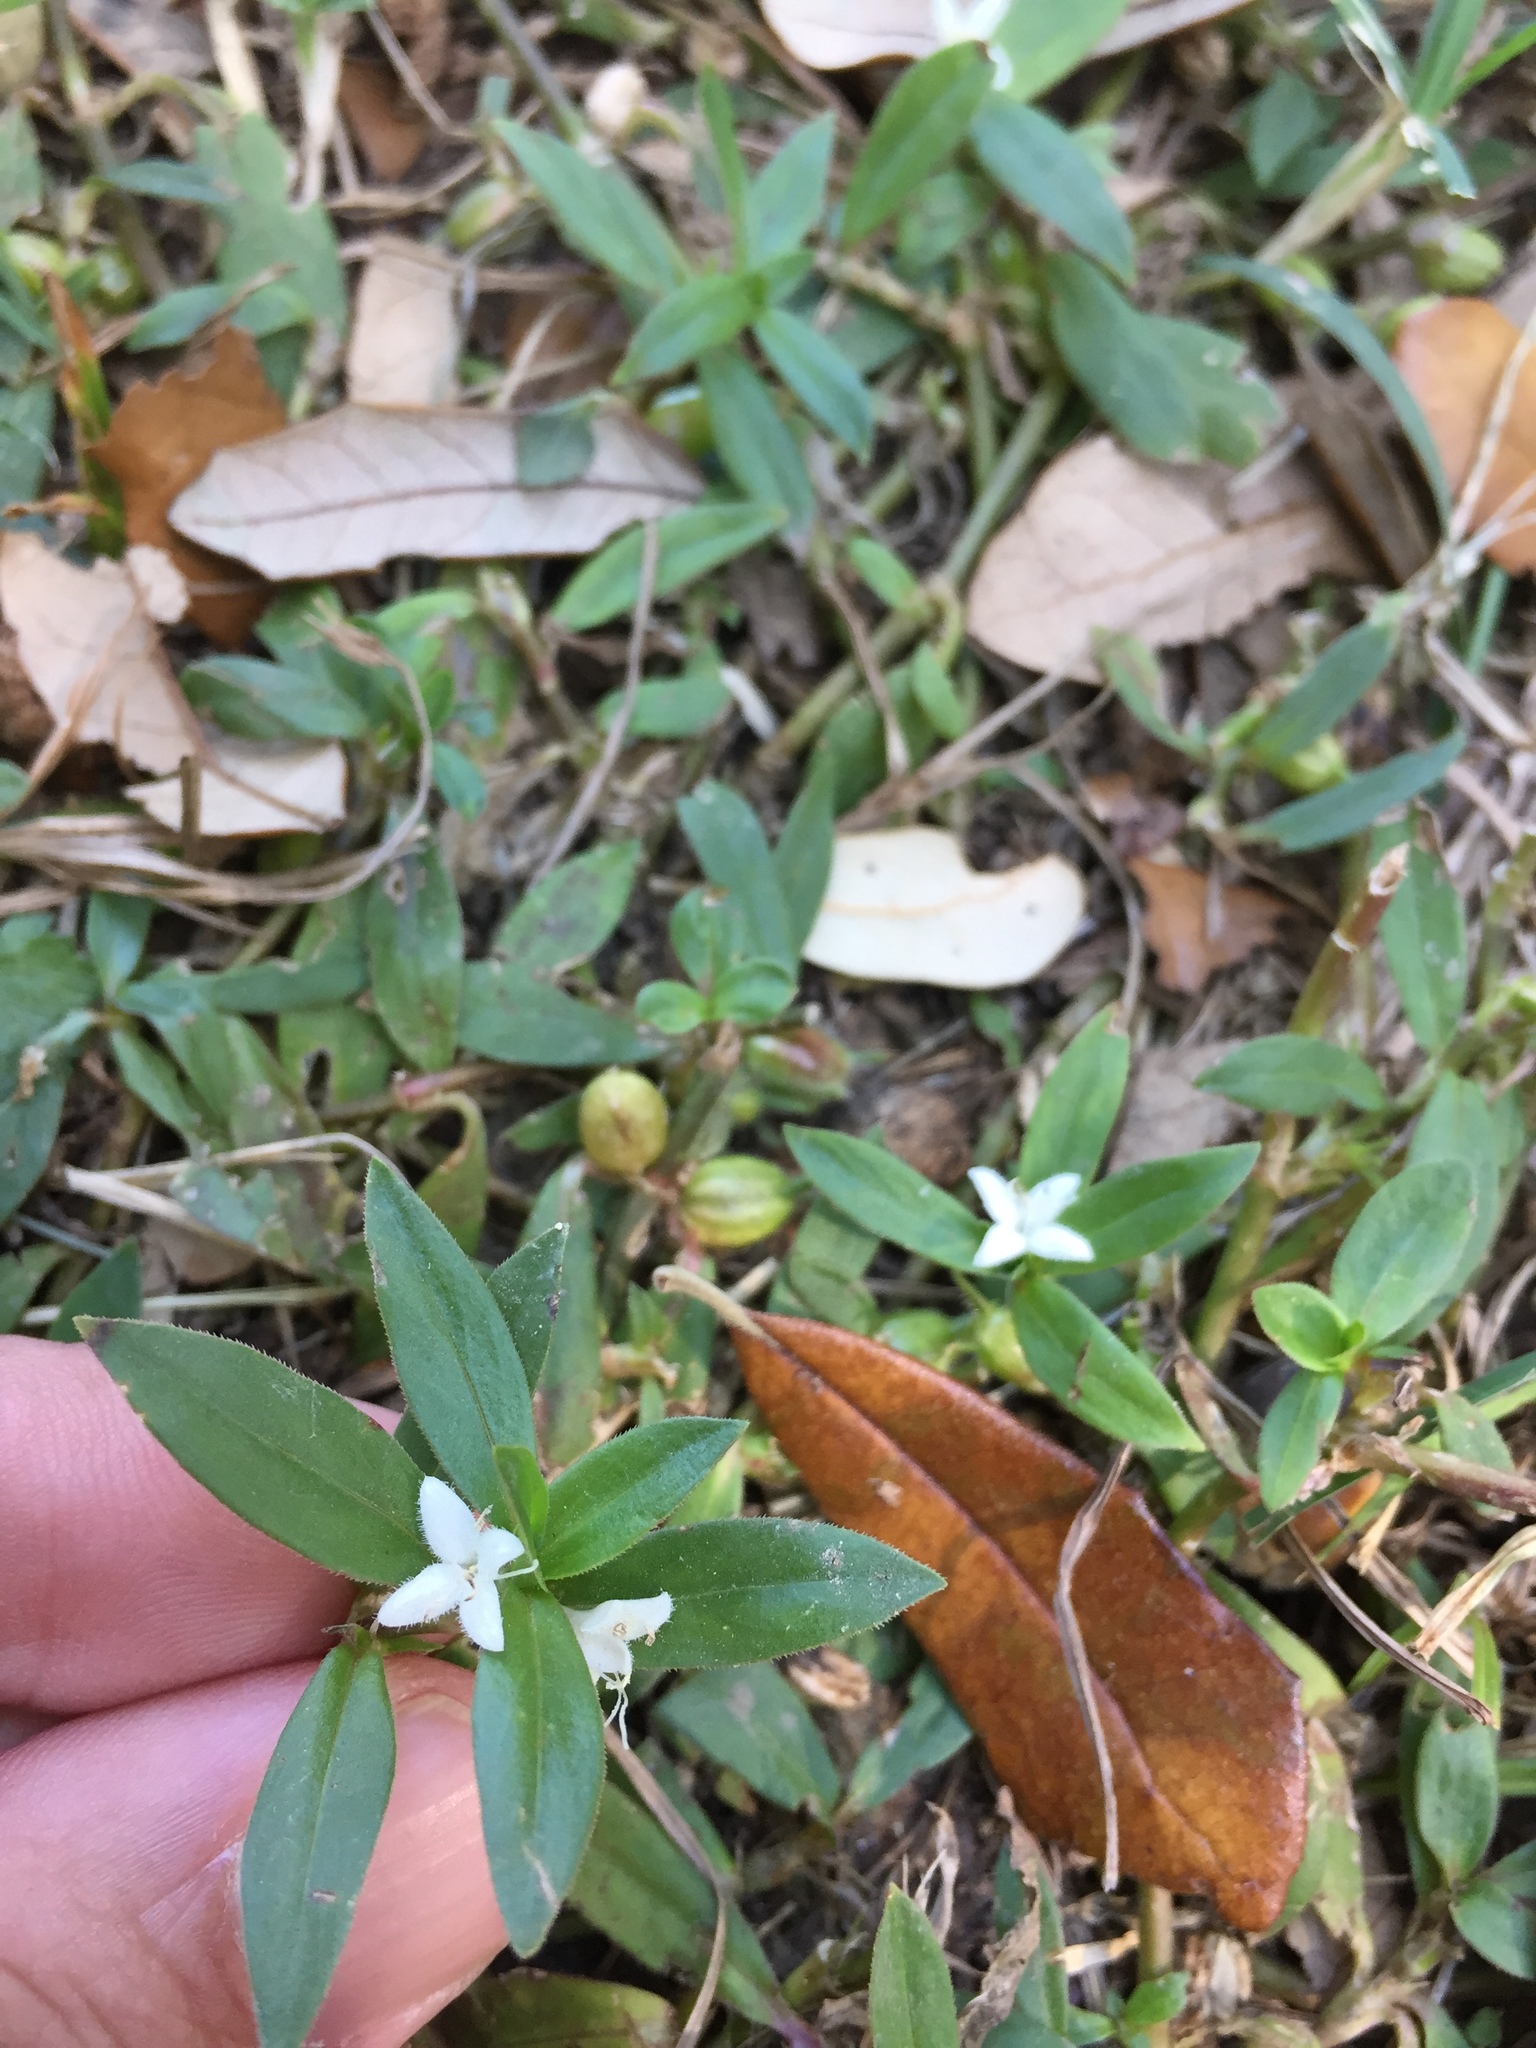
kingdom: Plantae
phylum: Tracheophyta
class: Magnoliopsida
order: Gentianales
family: Rubiaceae
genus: Diodia
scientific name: Diodia virginiana
